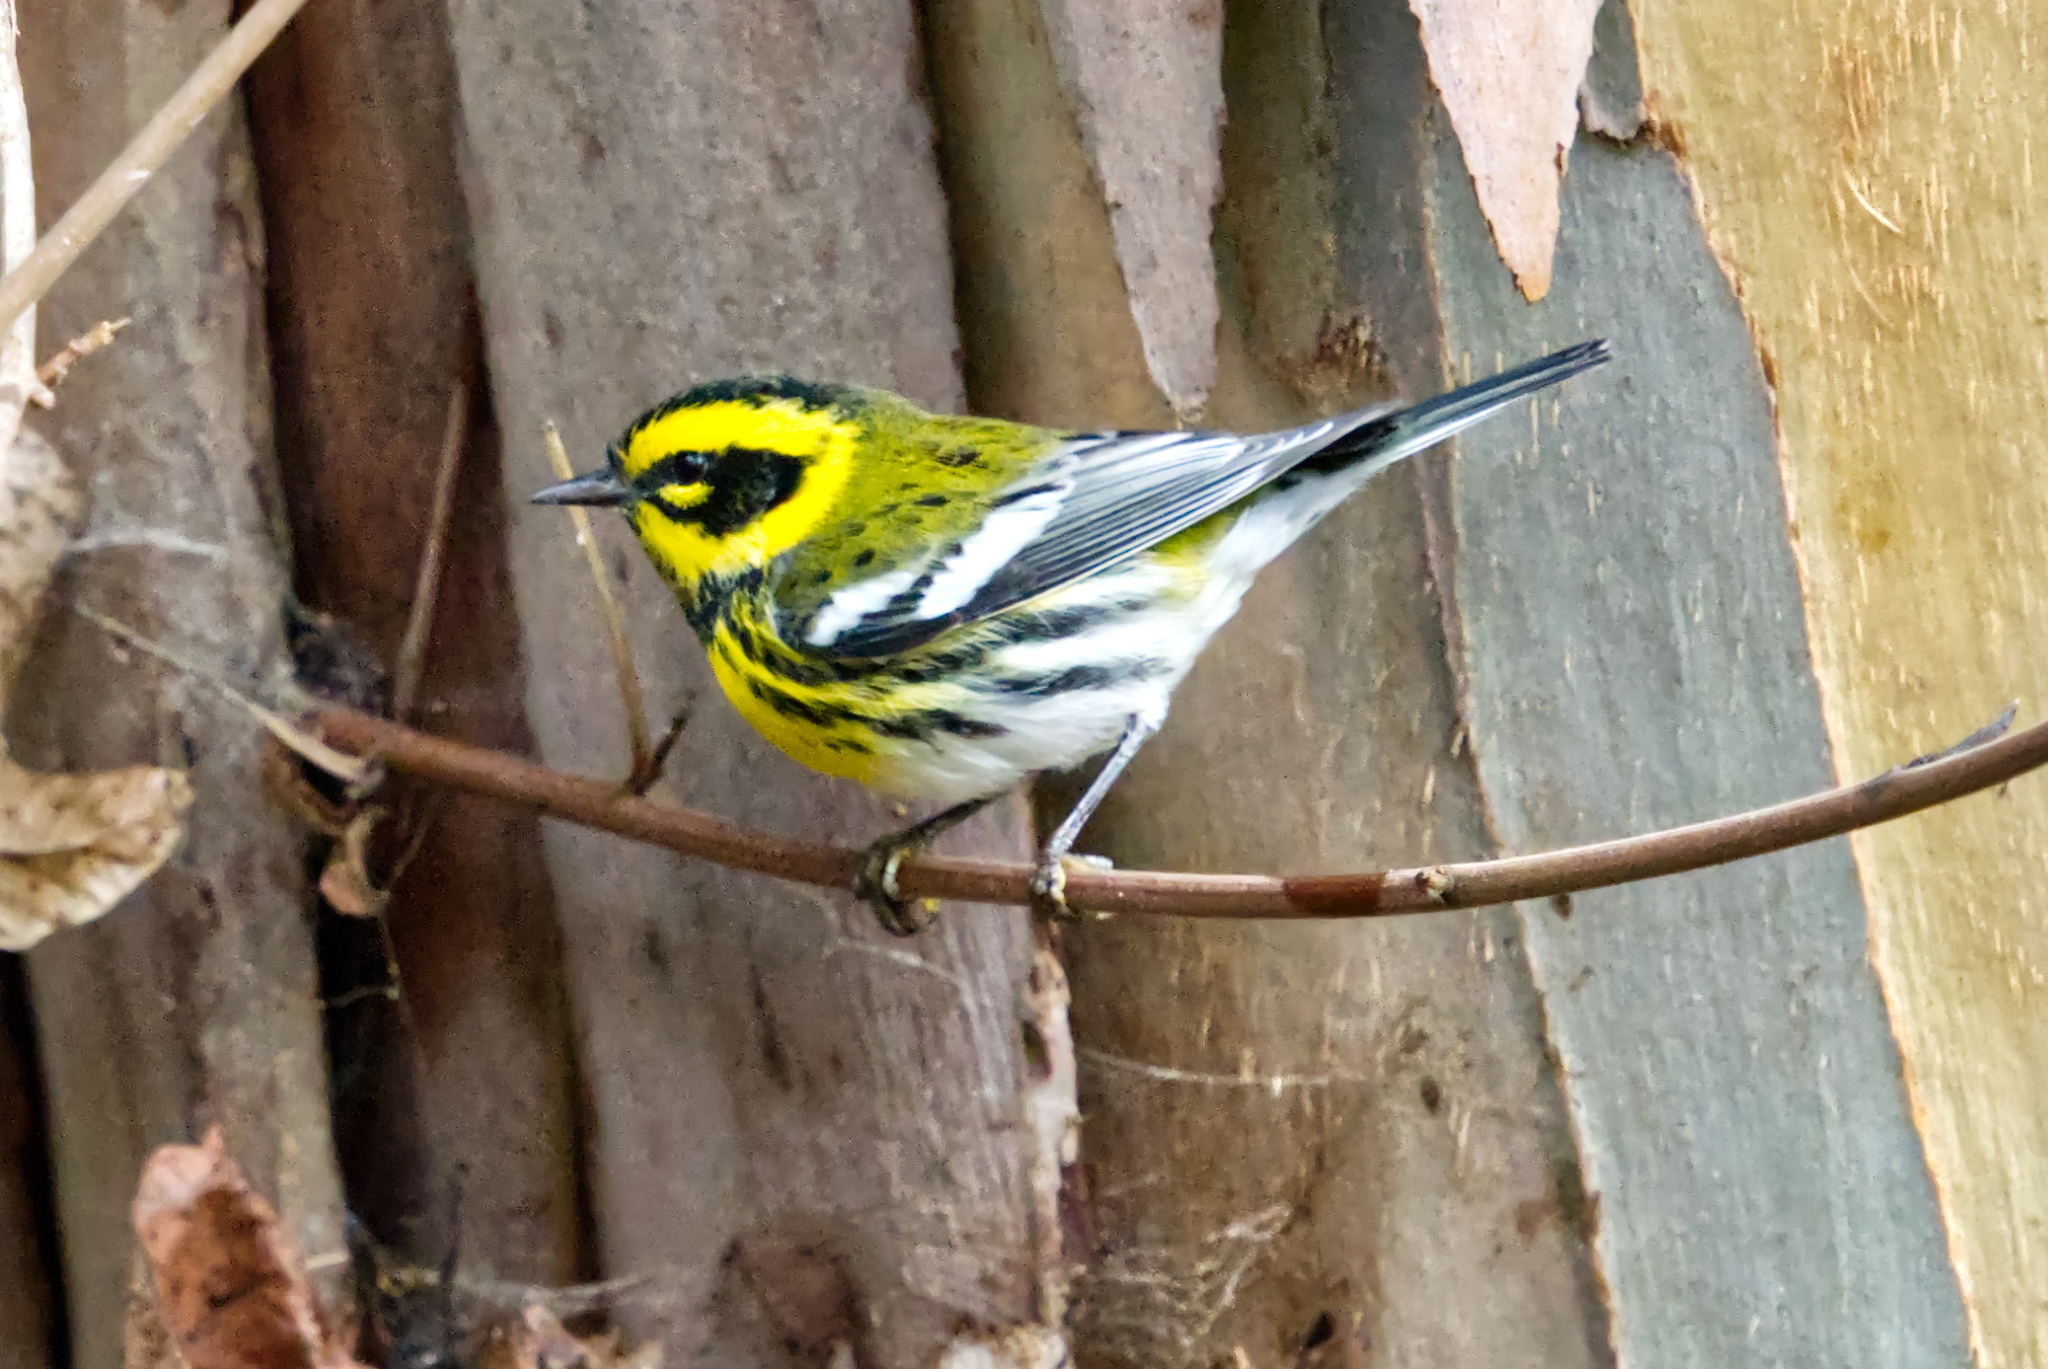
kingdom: Animalia
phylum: Chordata
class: Aves
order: Passeriformes
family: Parulidae
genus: Setophaga
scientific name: Setophaga townsendi
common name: Townsend's warbler
